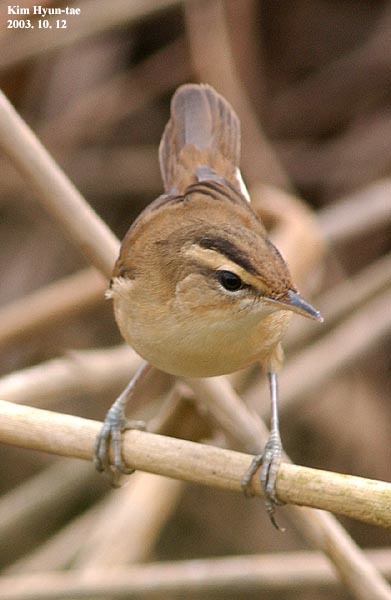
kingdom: Animalia
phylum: Chordata
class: Aves
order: Passeriformes
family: Acrocephalidae
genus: Acrocephalus
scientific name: Acrocephalus bistrigiceps
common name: Black-browed reed warbler
